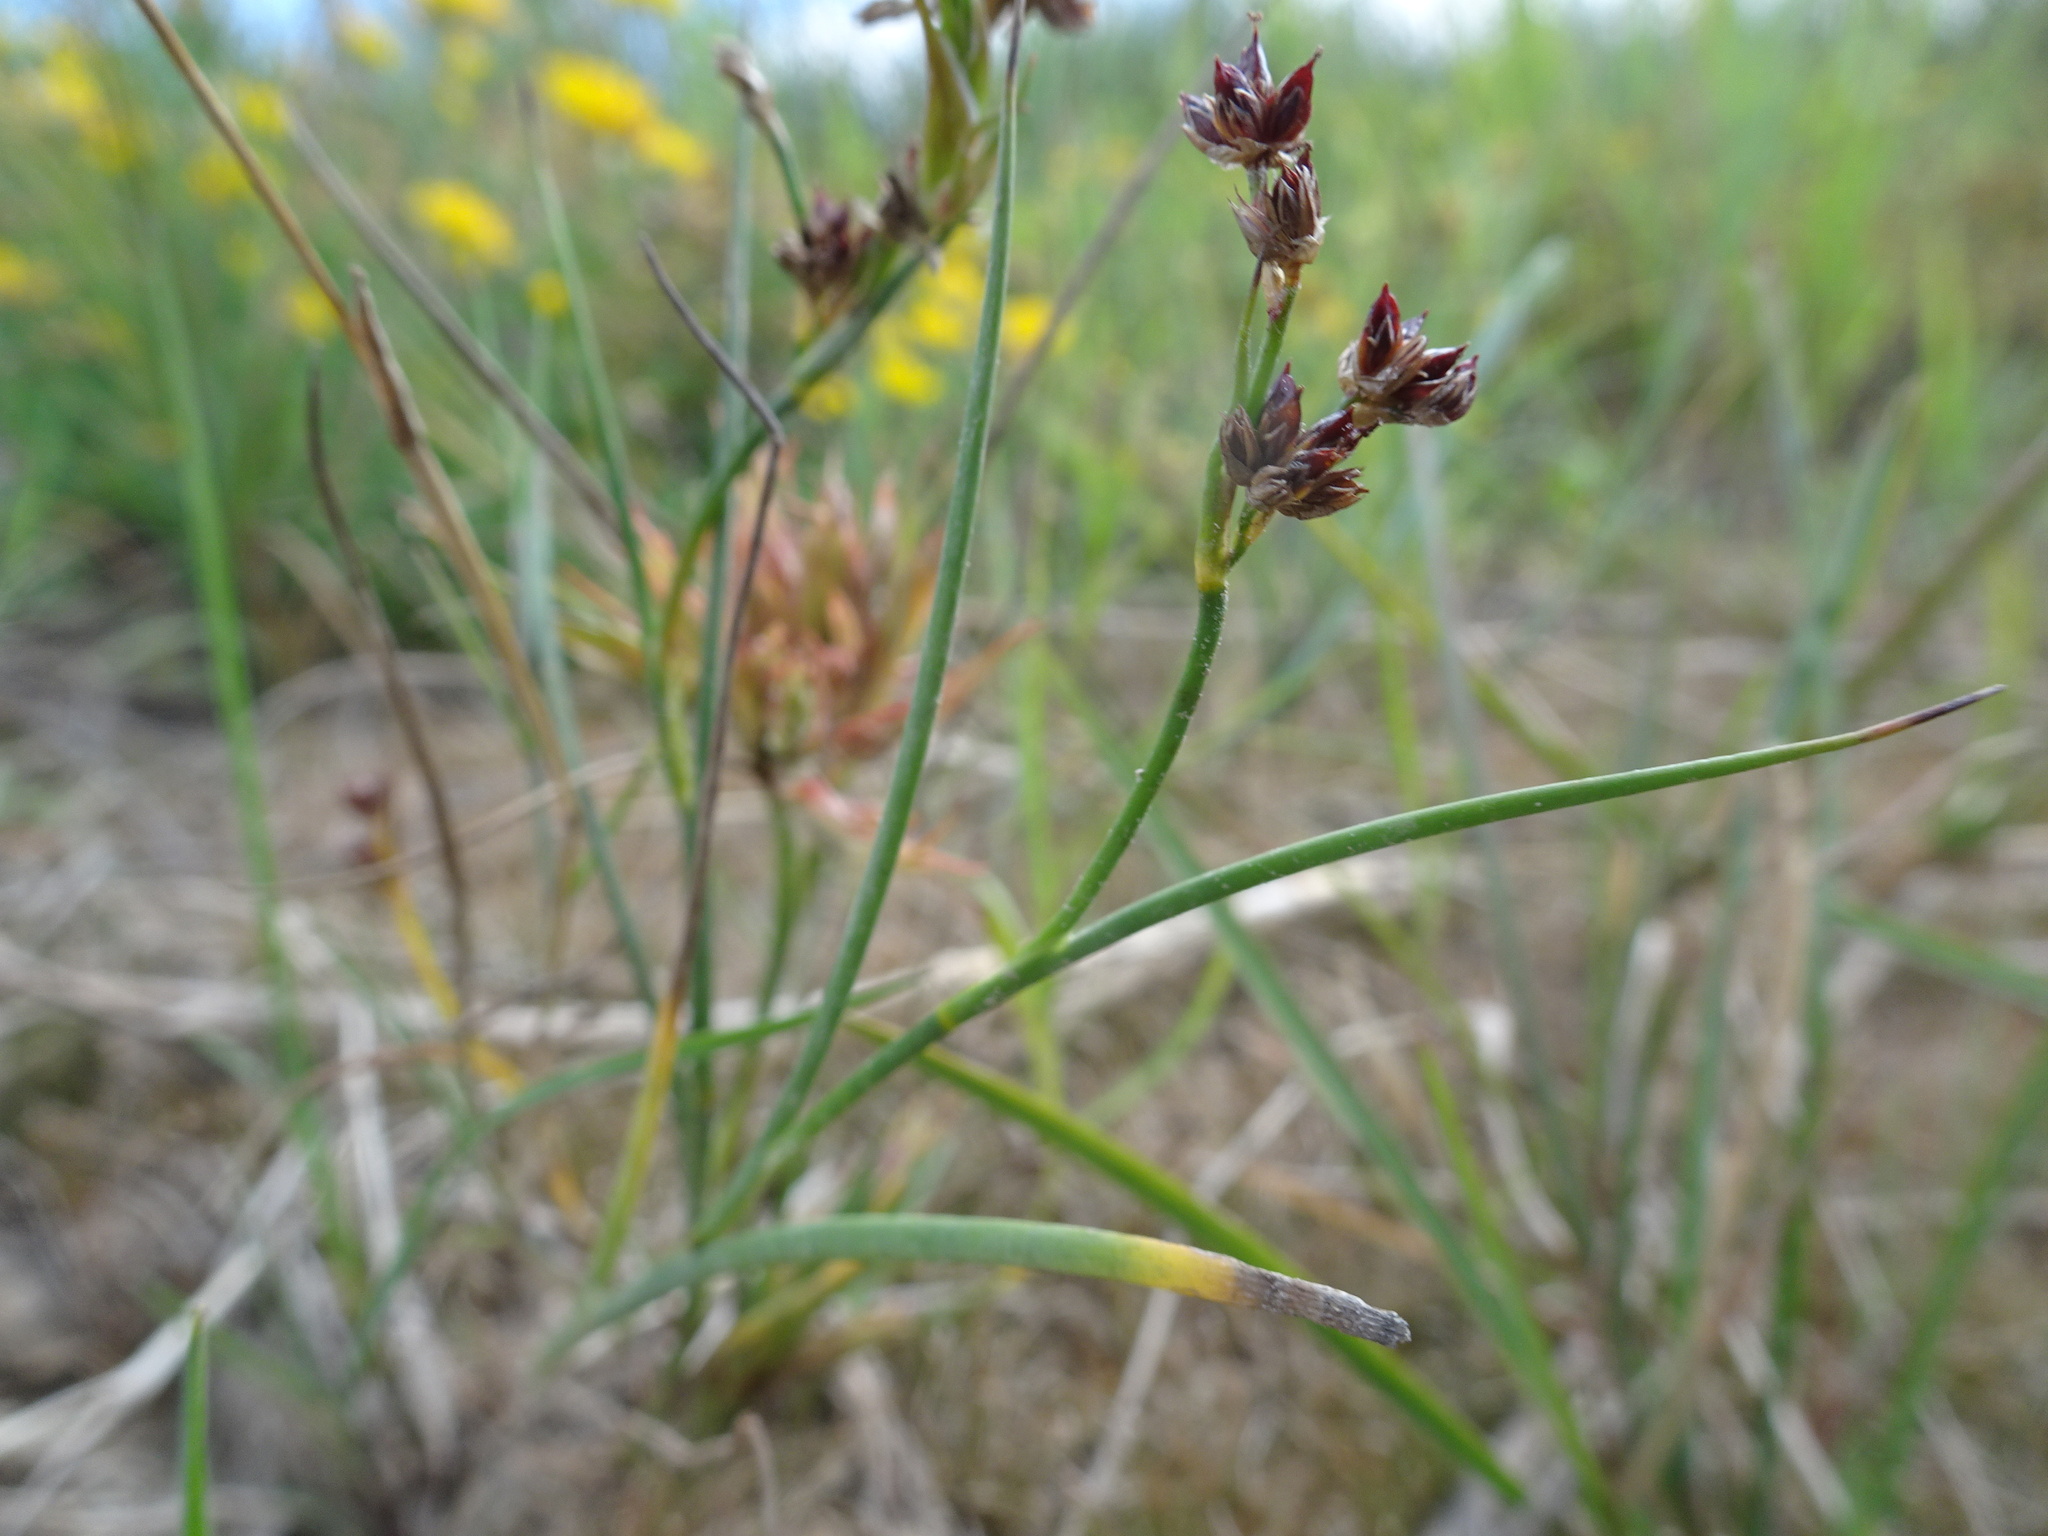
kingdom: Plantae
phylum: Tracheophyta
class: Liliopsida
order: Poales
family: Juncaceae
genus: Juncus
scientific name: Juncus articulatus
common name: Jointed rush
